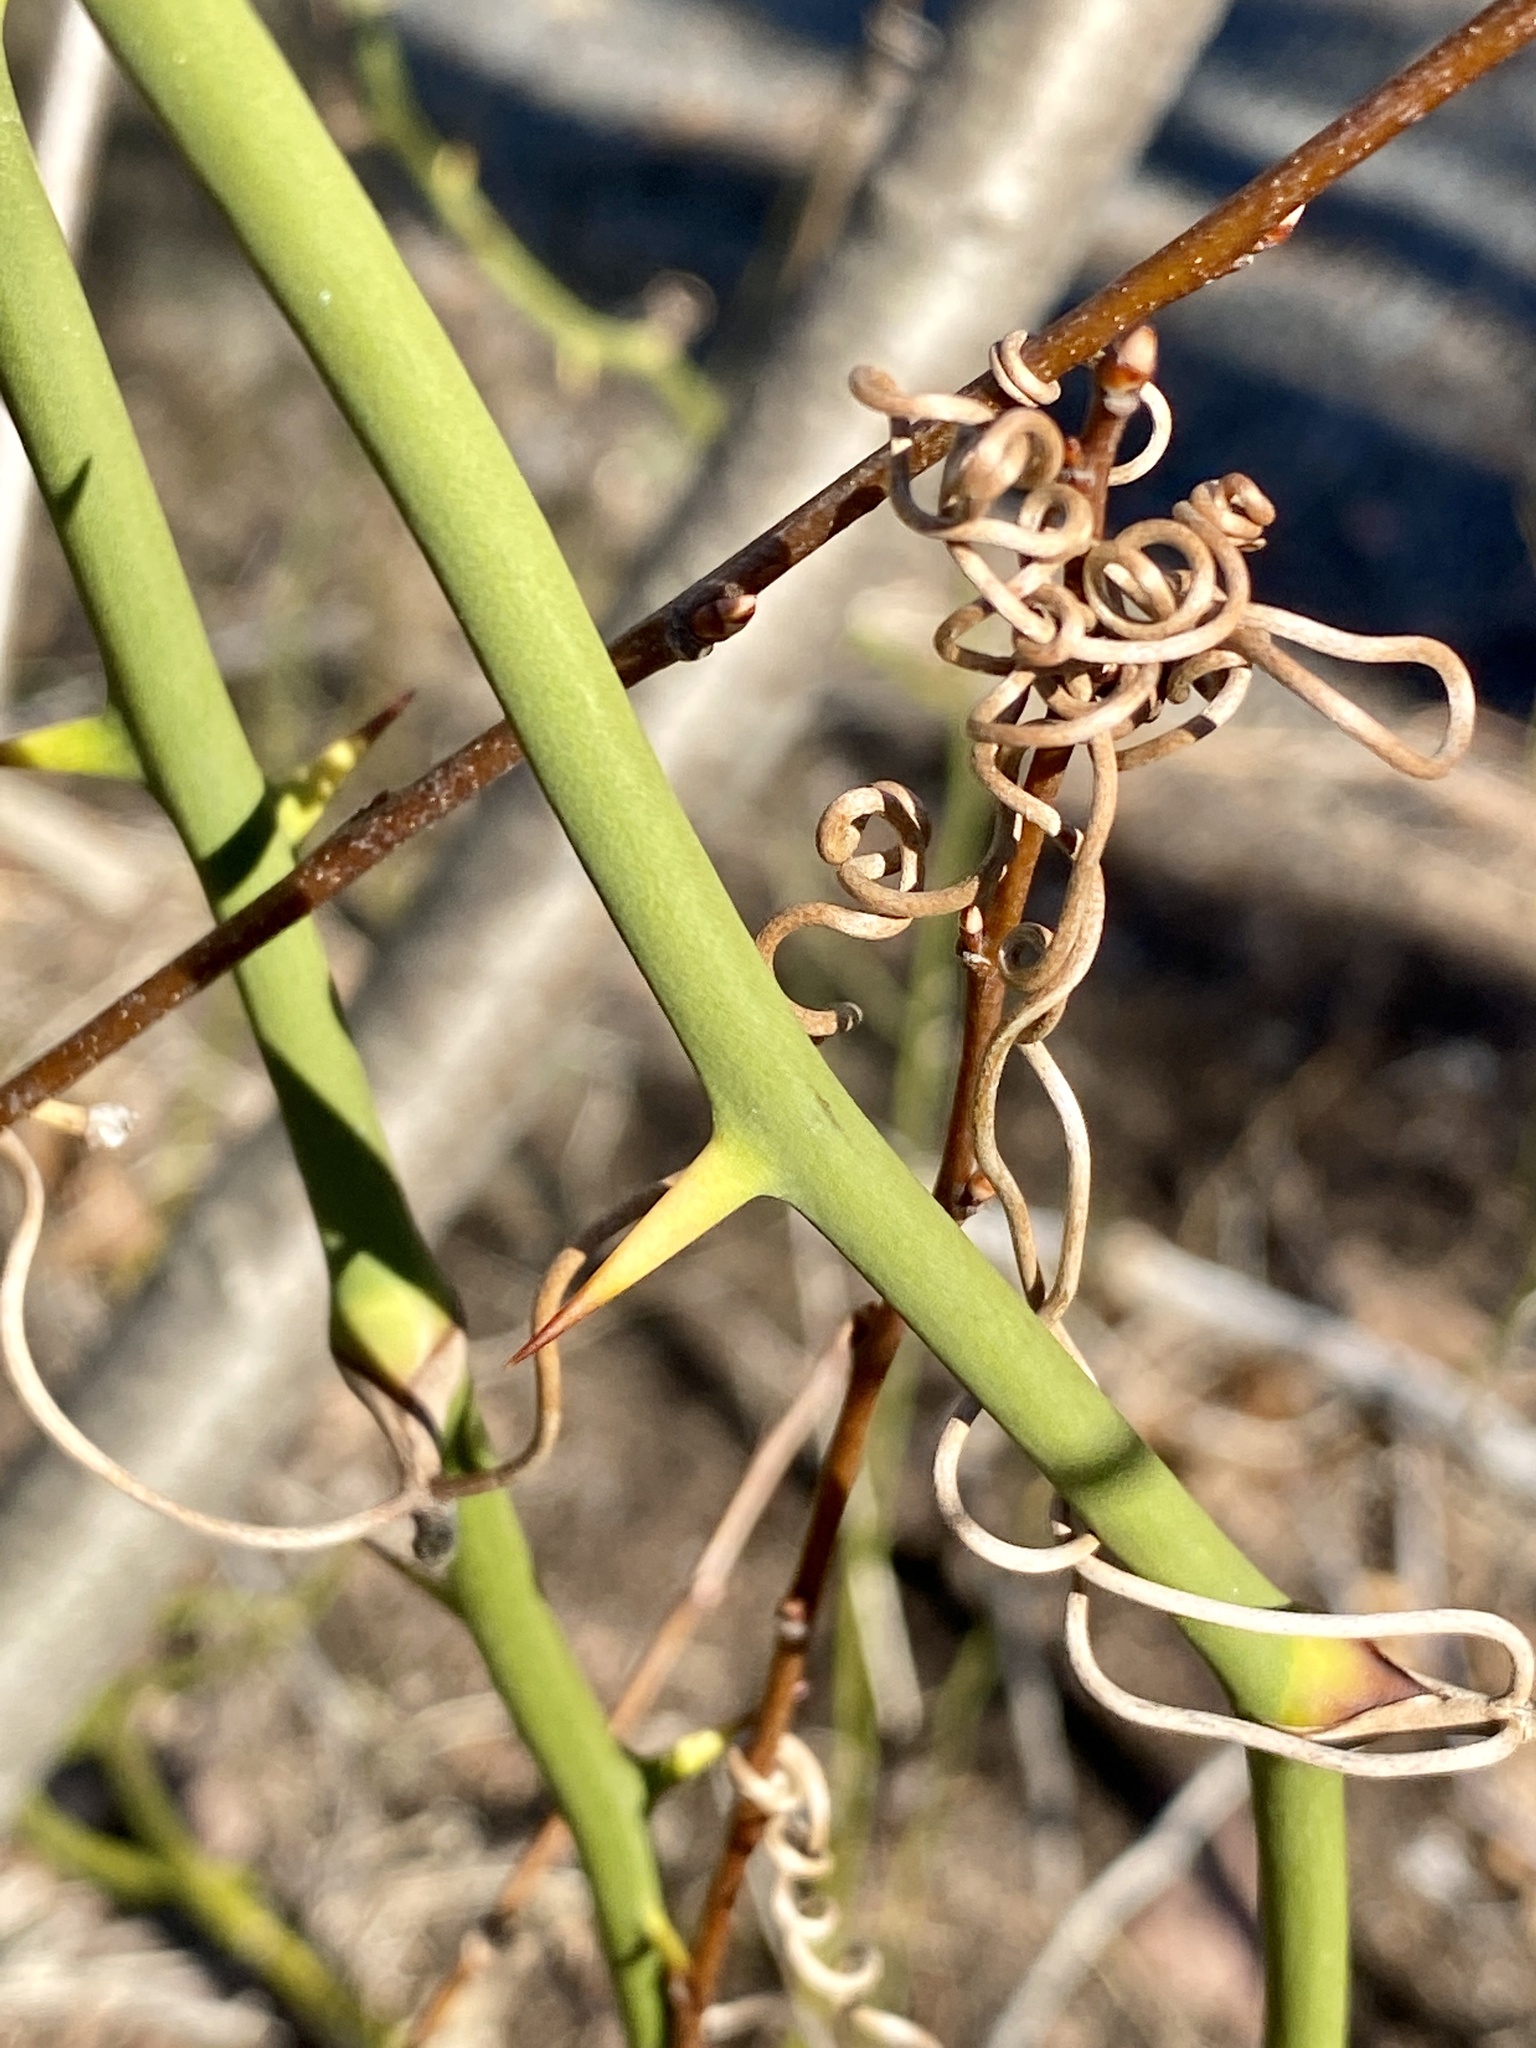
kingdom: Plantae
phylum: Tracheophyta
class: Liliopsida
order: Liliales
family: Smilacaceae
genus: Smilax
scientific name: Smilax rotundifolia
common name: Bullbriar
